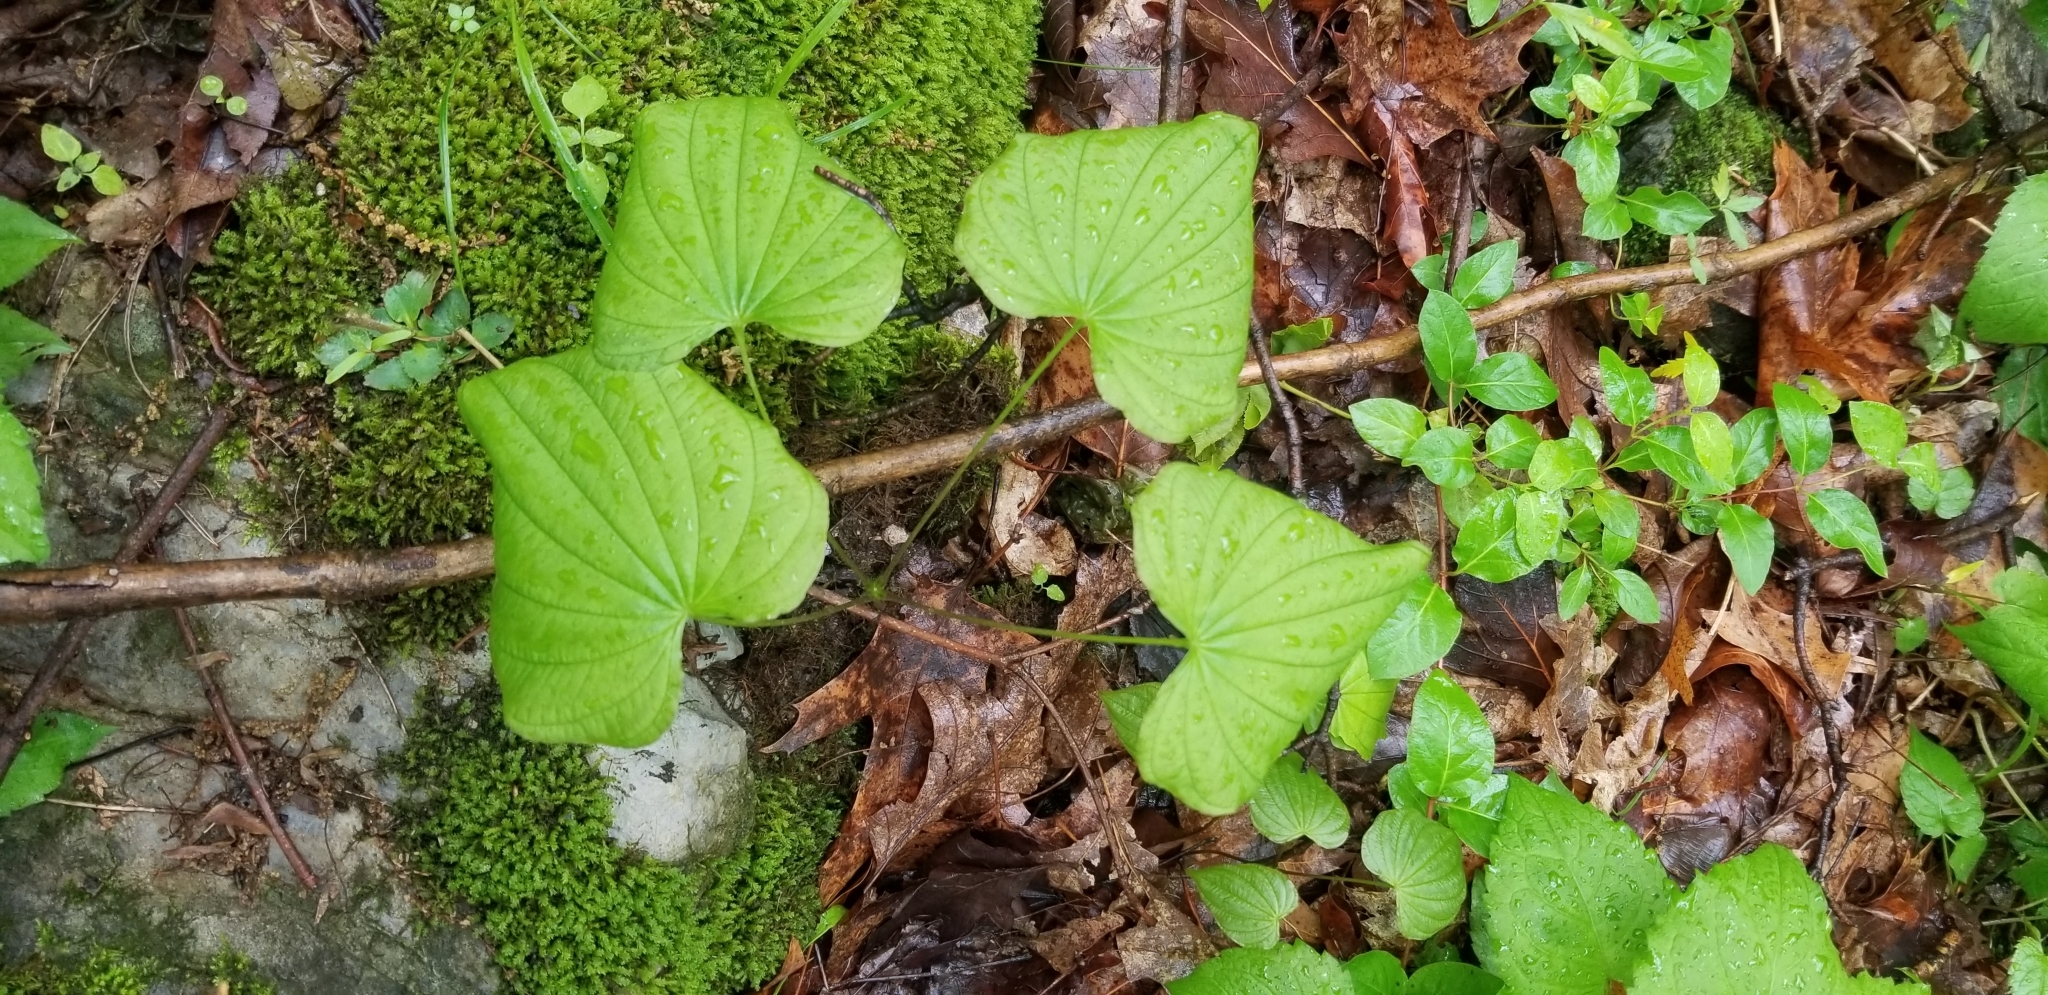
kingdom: Plantae
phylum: Tracheophyta
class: Liliopsida
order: Dioscoreales
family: Dioscoreaceae
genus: Dioscorea
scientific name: Dioscorea villosa
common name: Wild yam
